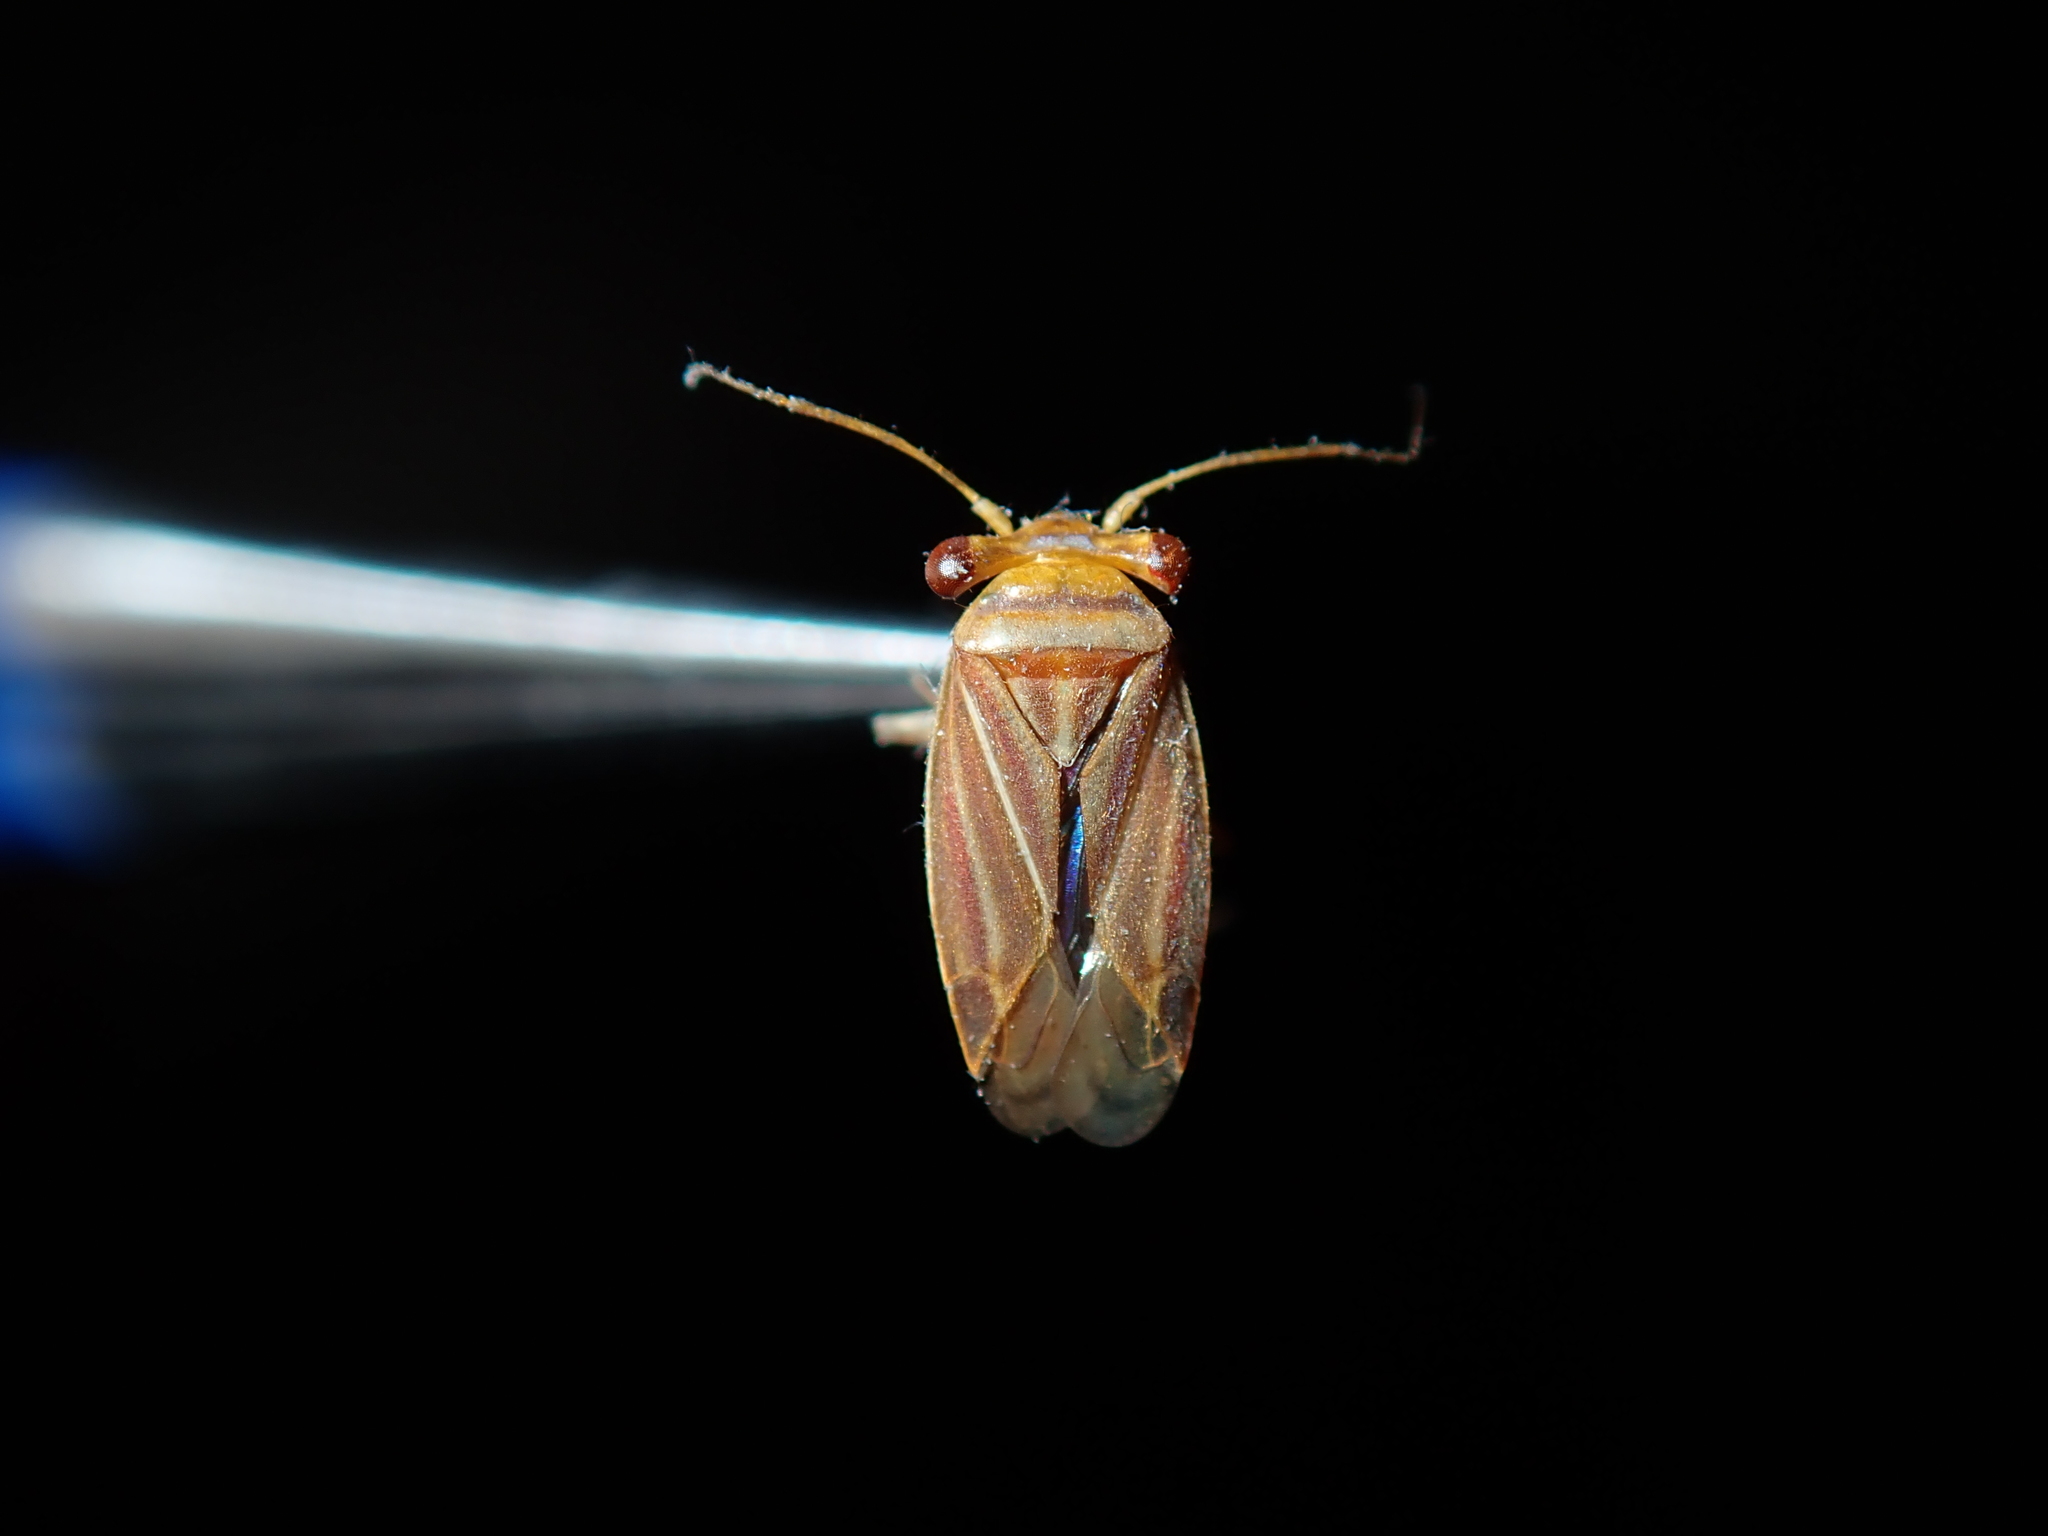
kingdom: Animalia
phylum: Arthropoda
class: Insecta
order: Hemiptera
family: Miridae
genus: Dilatops
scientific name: Dilatops fici
